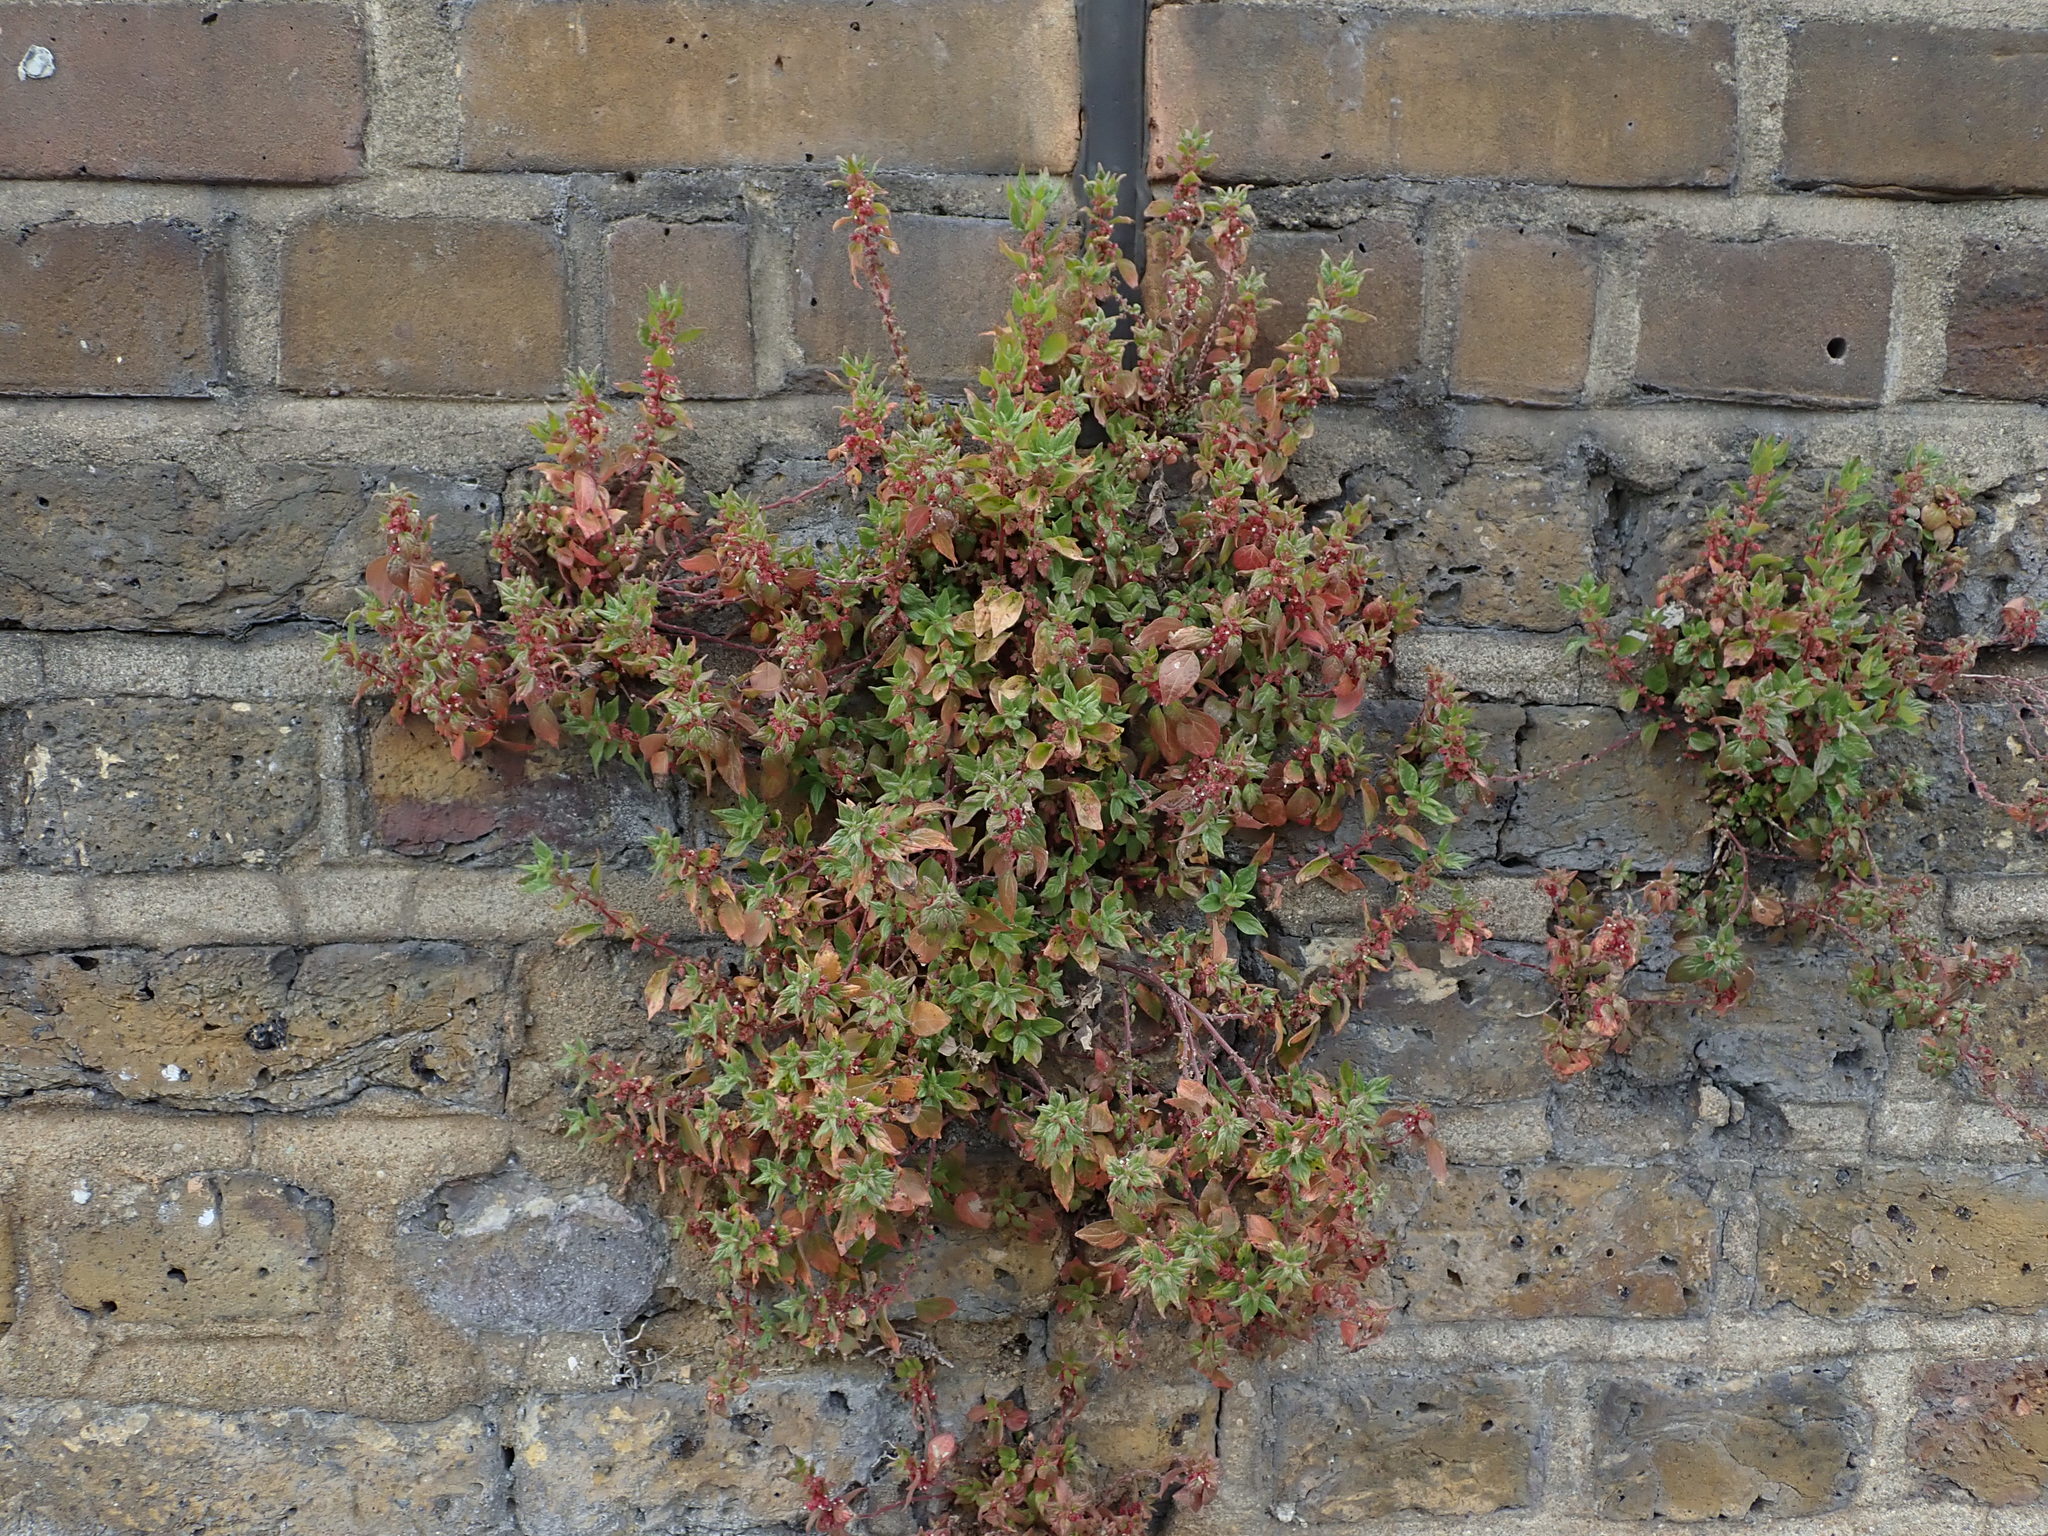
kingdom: Plantae
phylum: Tracheophyta
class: Magnoliopsida
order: Rosales
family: Urticaceae
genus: Parietaria
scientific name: Parietaria judaica
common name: Pellitory-of-the-wall
